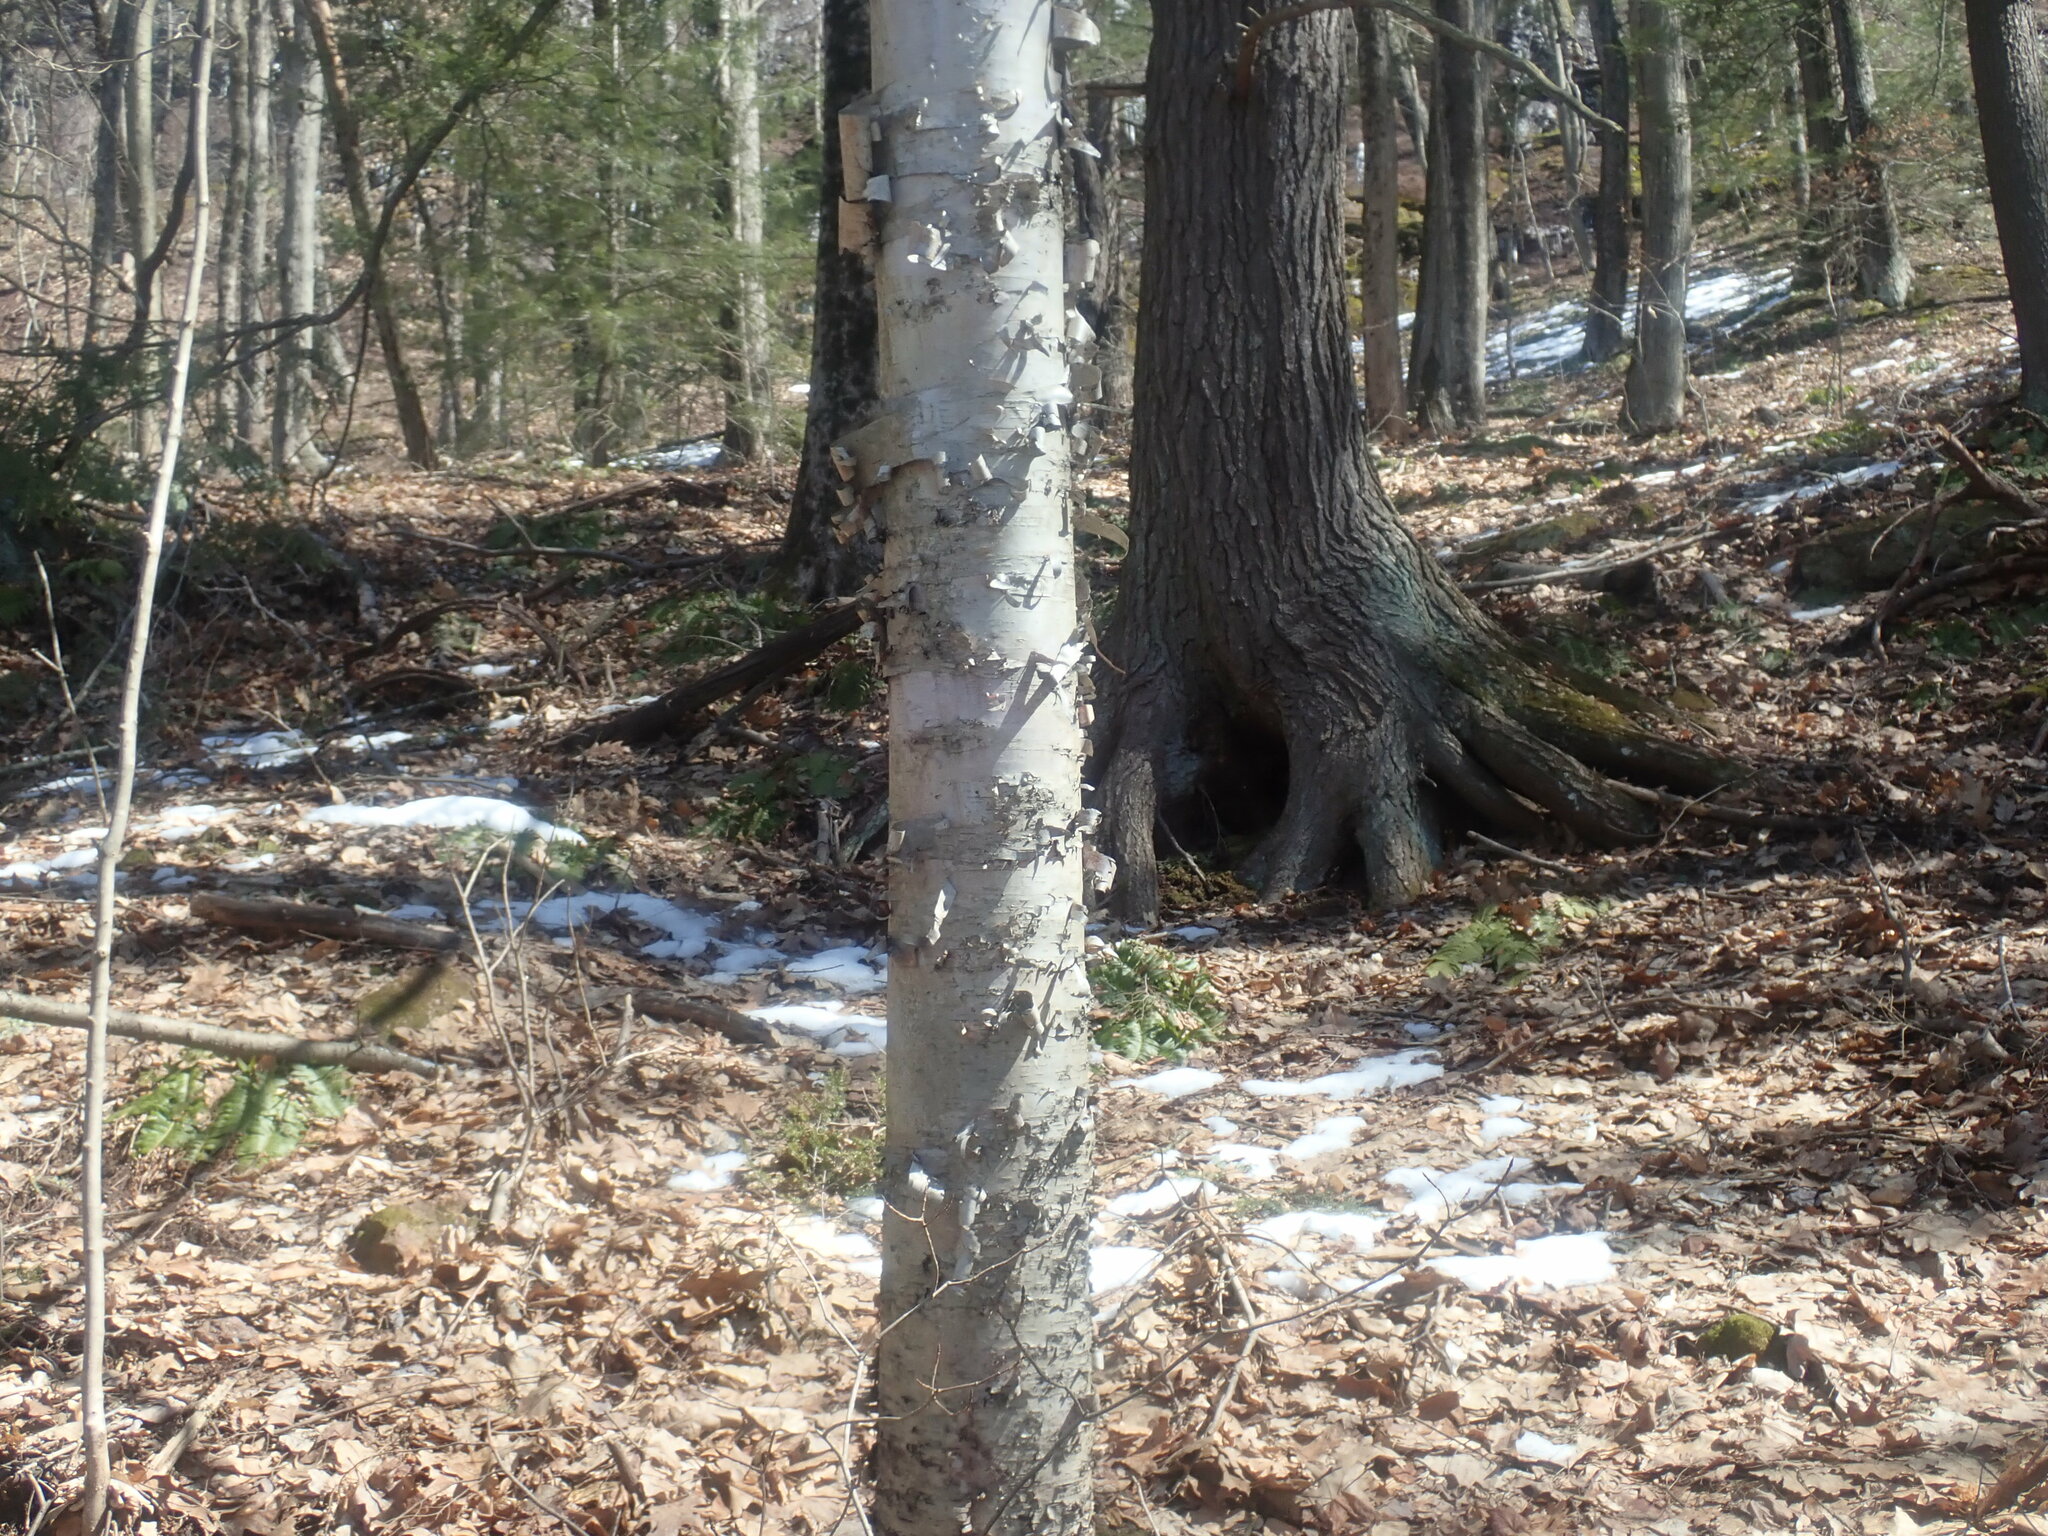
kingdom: Plantae
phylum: Tracheophyta
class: Magnoliopsida
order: Fagales
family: Betulaceae
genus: Betula
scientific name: Betula papyrifera
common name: Paper birch
